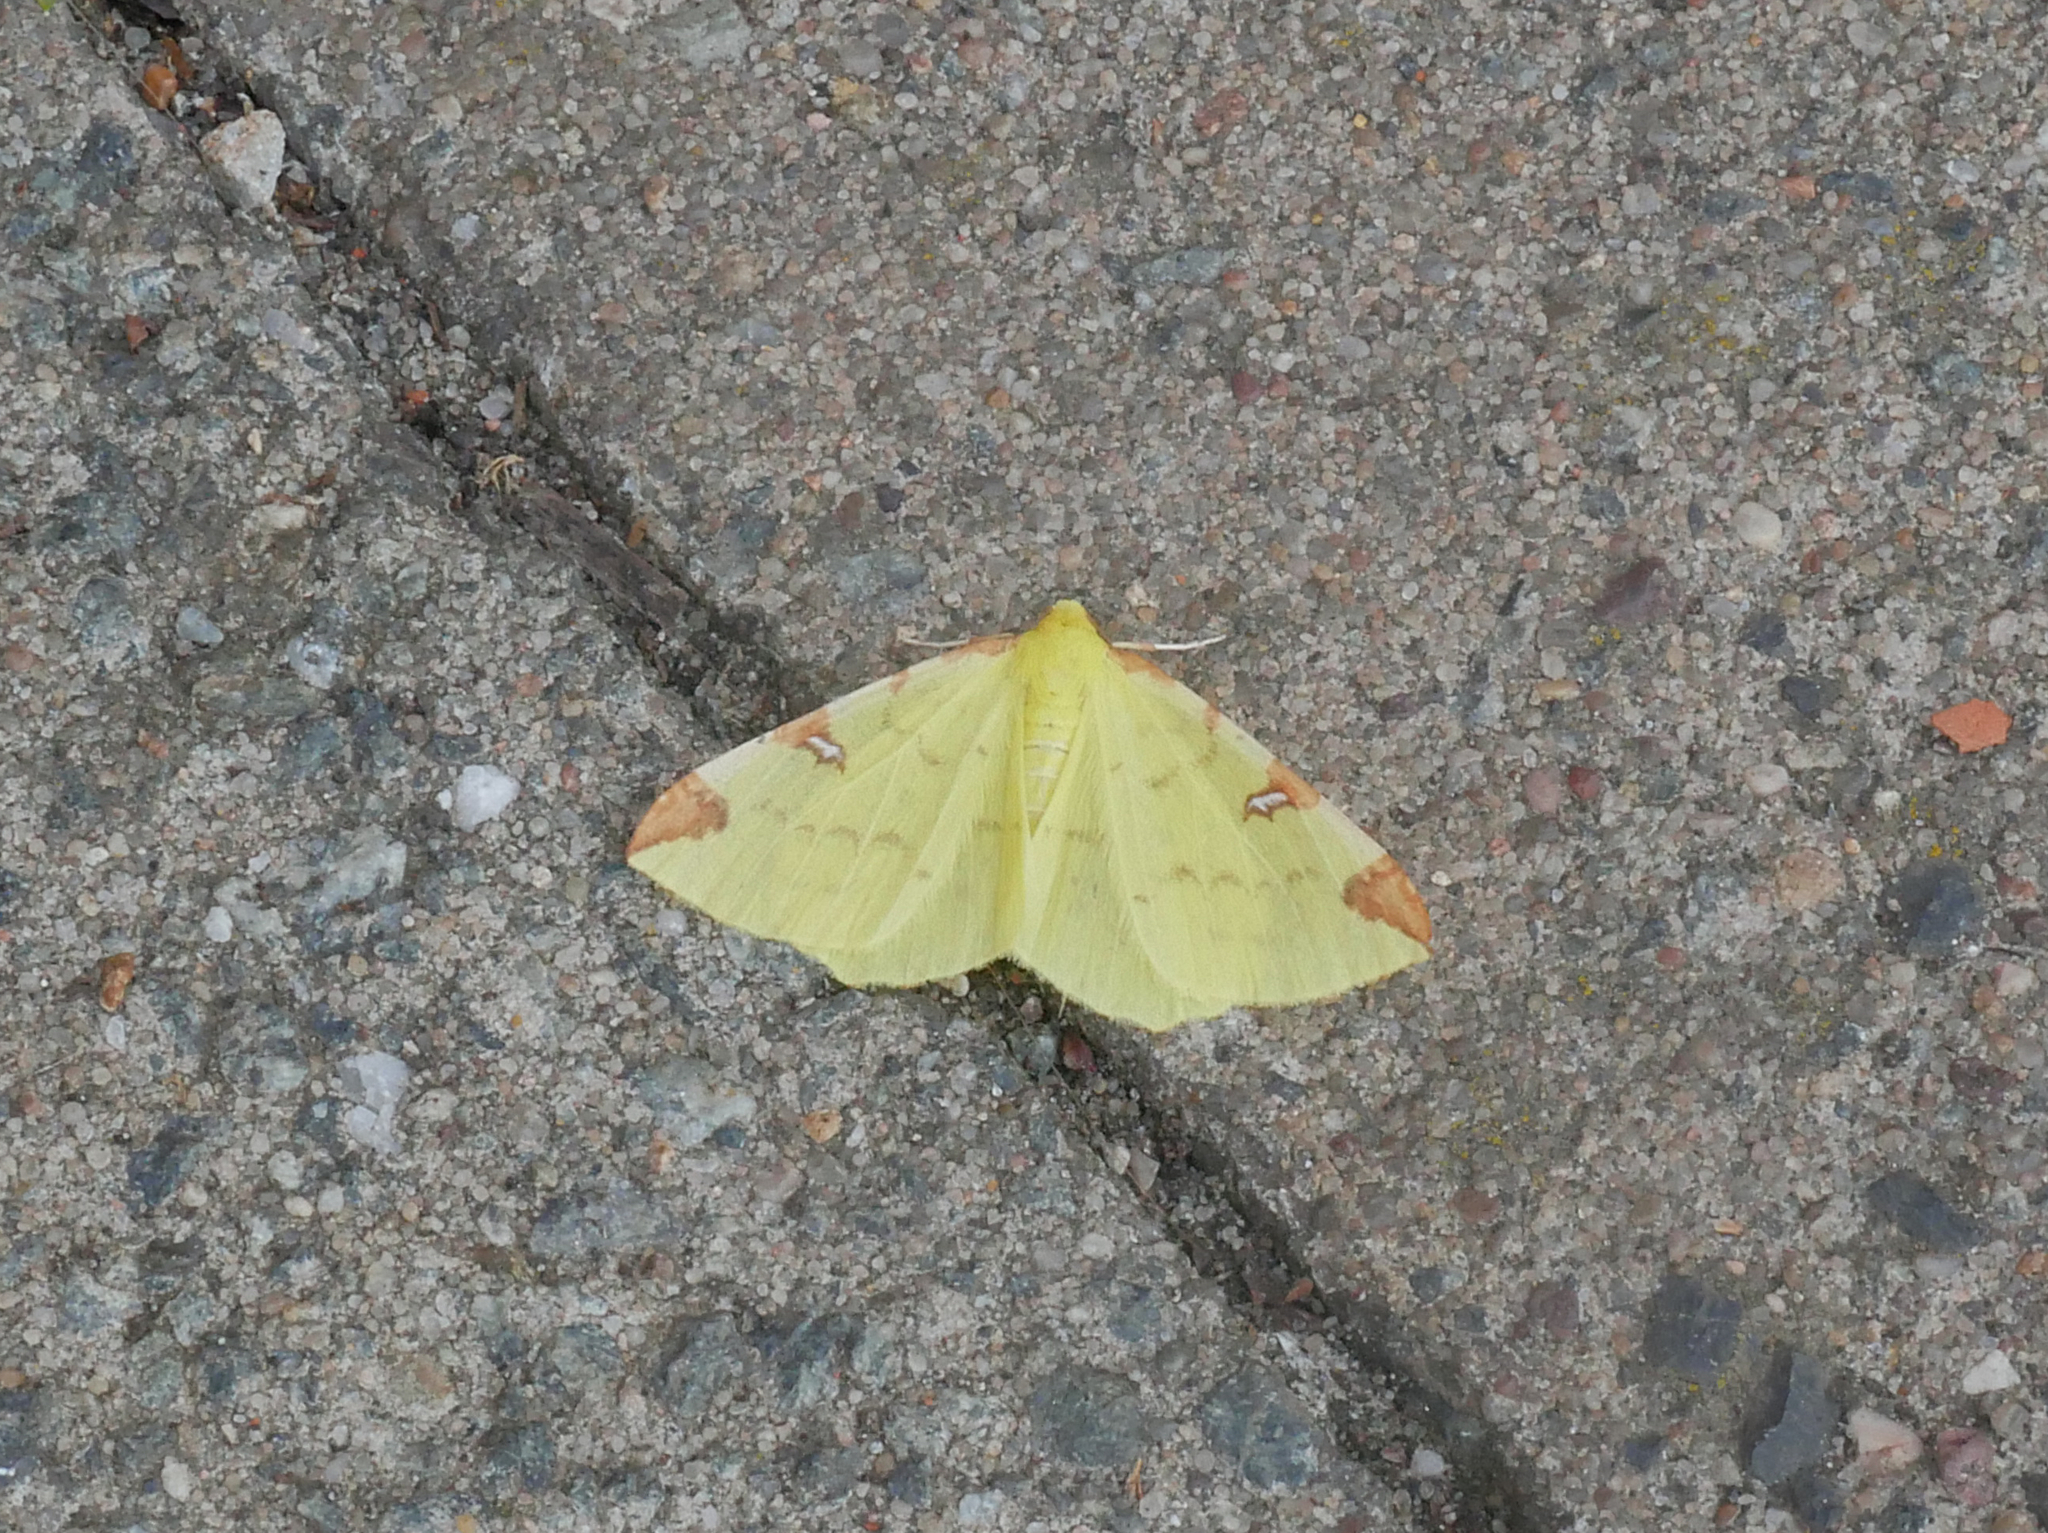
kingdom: Animalia
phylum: Arthropoda
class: Insecta
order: Lepidoptera
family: Geometridae
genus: Opisthograptis
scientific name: Opisthograptis luteolata
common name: Brimstone moth
